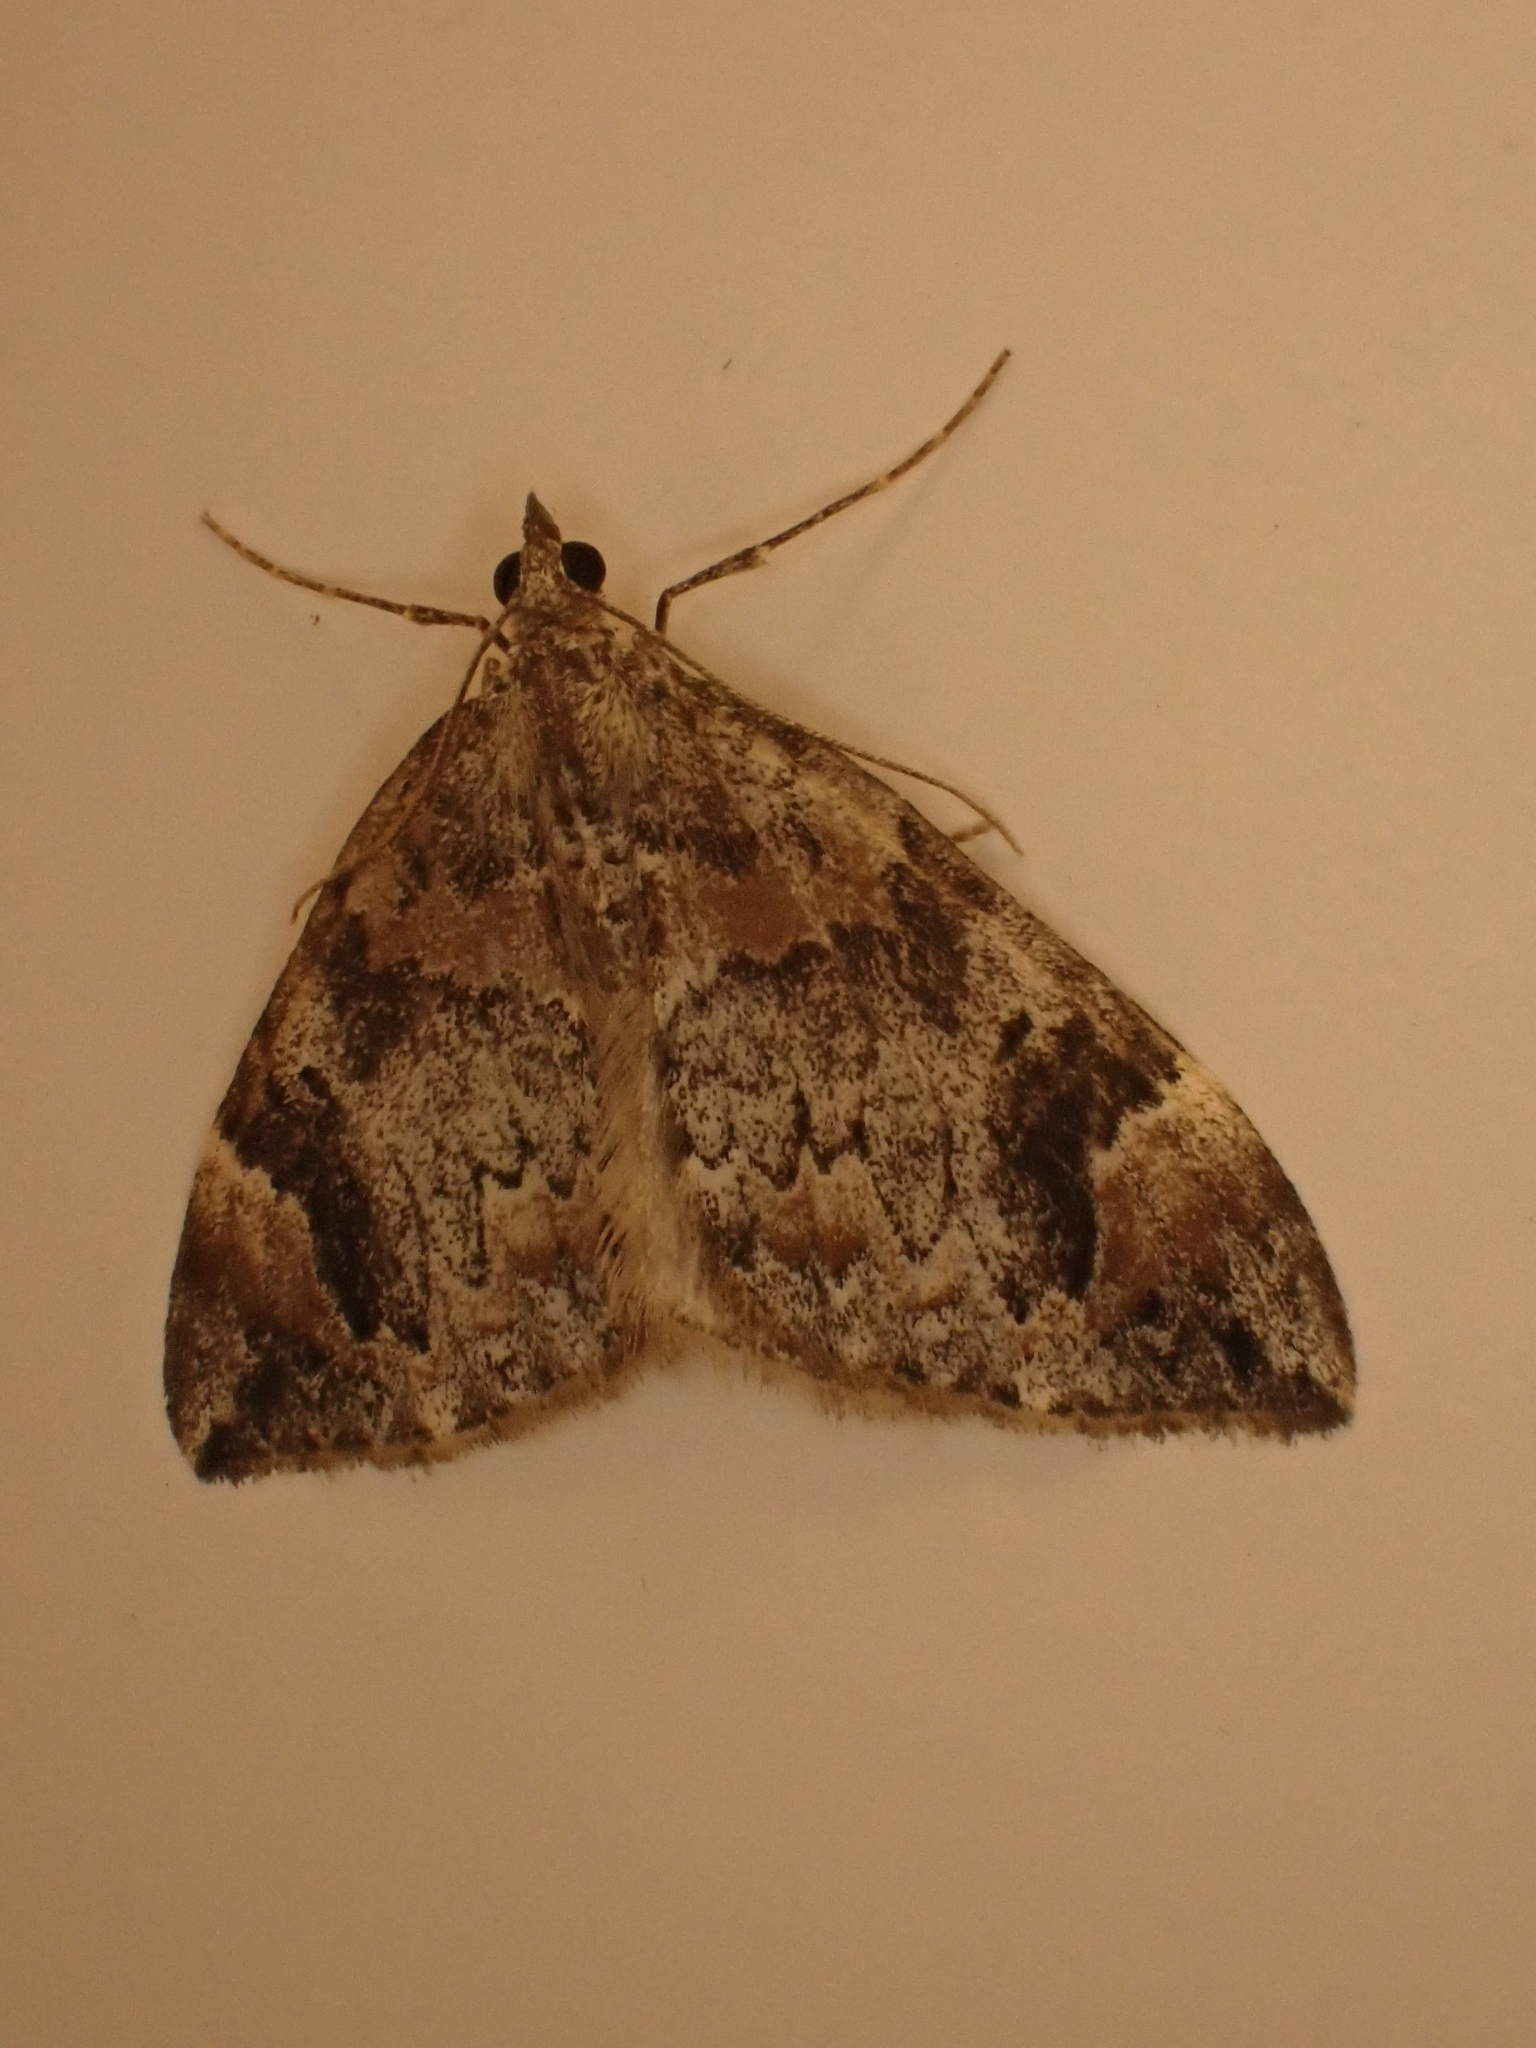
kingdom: Animalia
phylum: Arthropoda
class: Insecta
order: Lepidoptera
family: Geometridae
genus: Dysstroma
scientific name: Dysstroma citrata
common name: Dark marbled carpet
